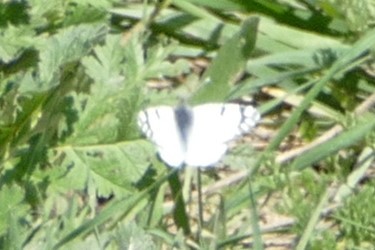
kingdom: Animalia
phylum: Arthropoda
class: Insecta
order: Lepidoptera
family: Pieridae
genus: Euchloe
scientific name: Euchloe crameri
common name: Western dappled white
